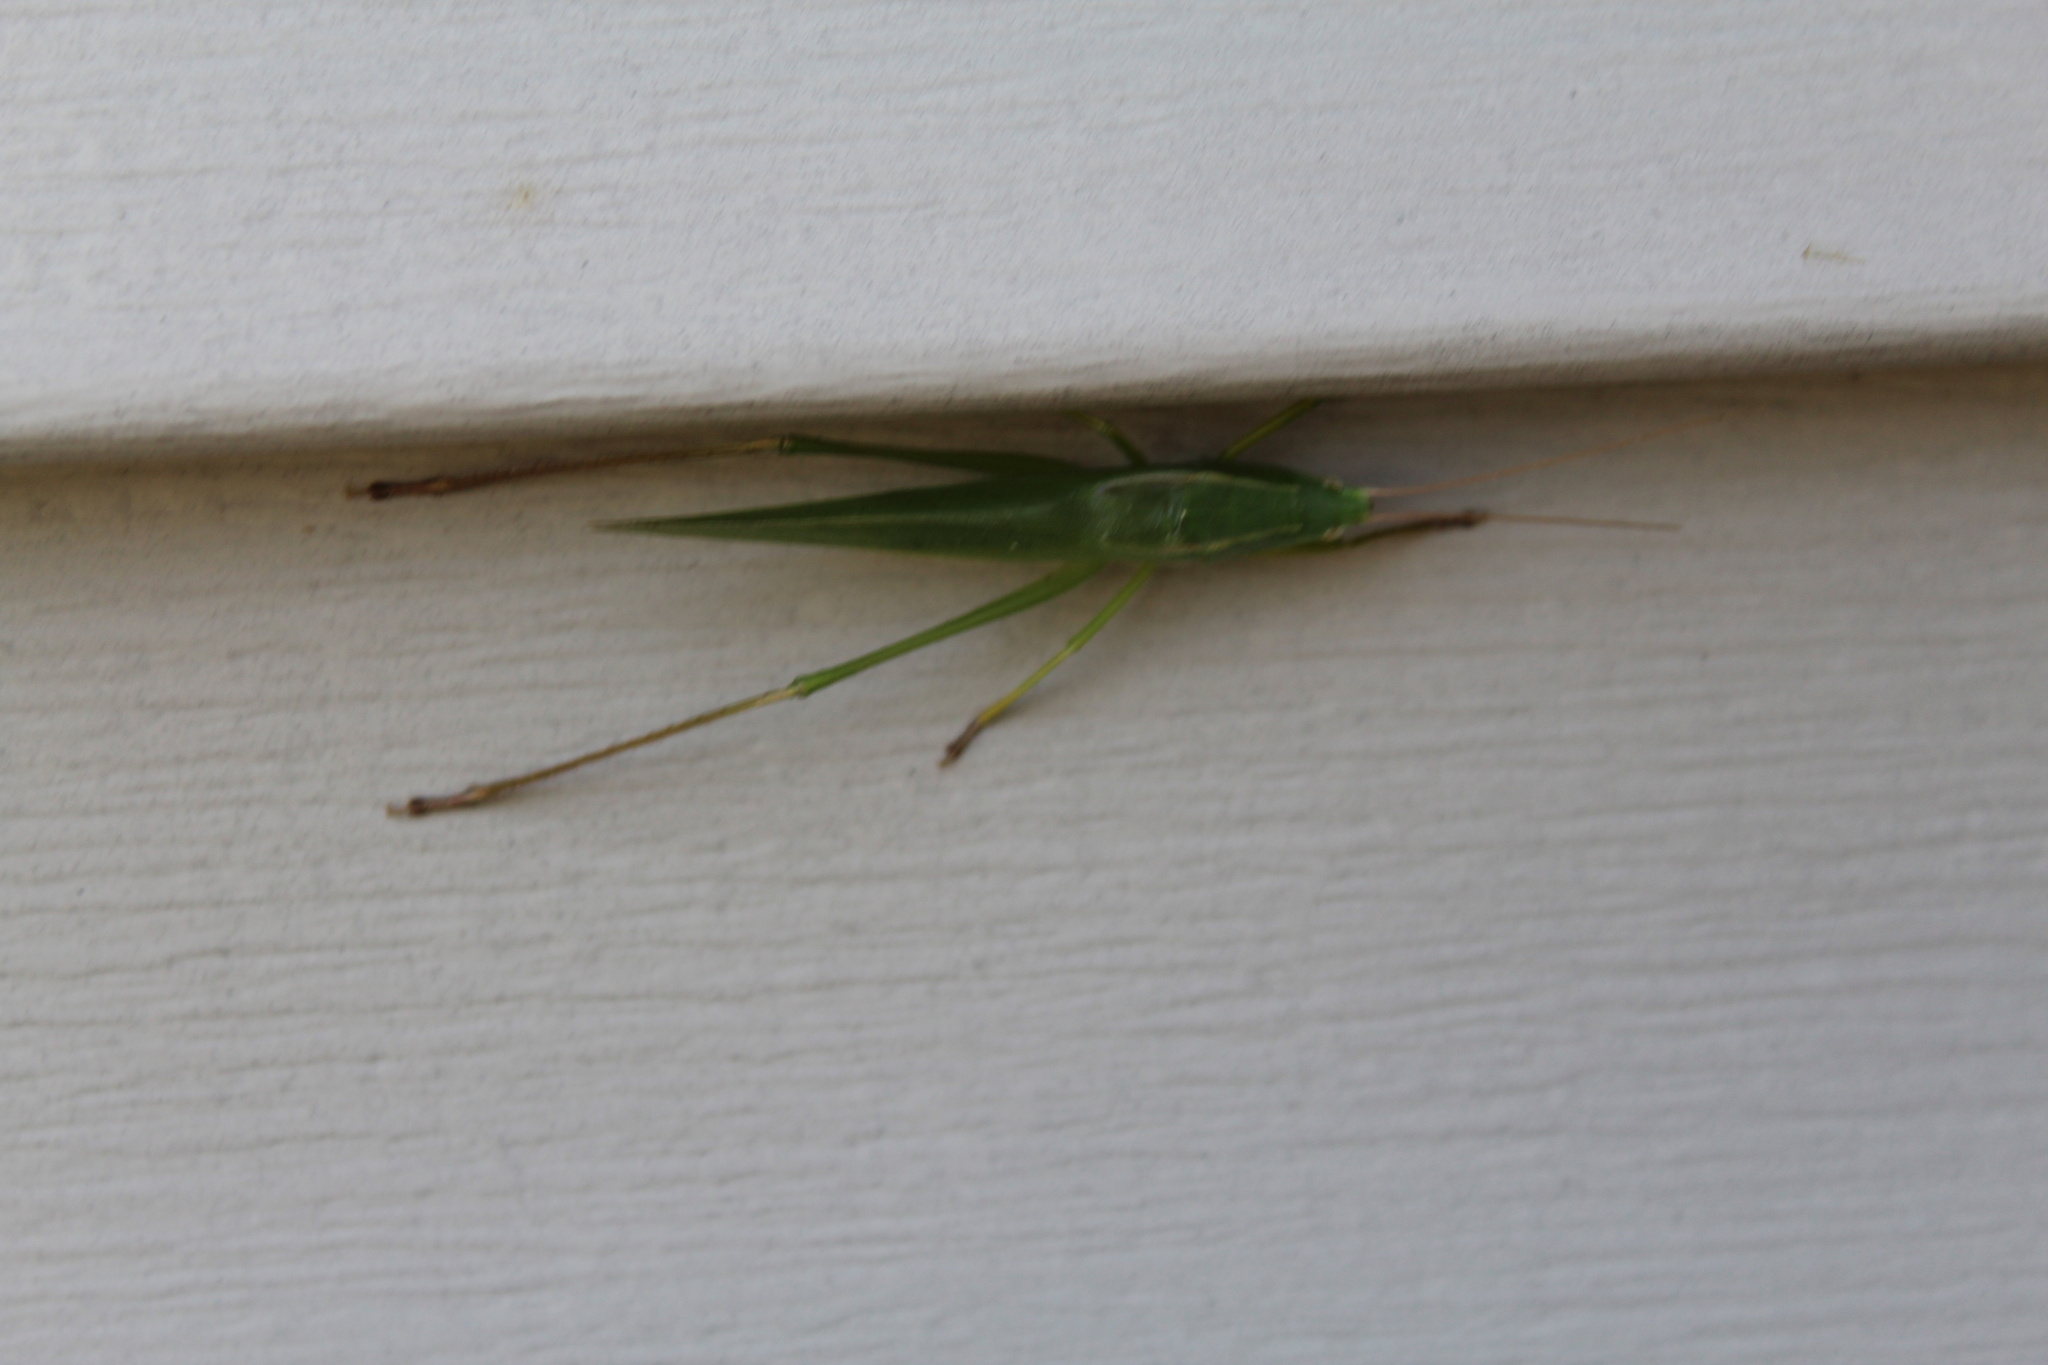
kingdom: Animalia
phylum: Arthropoda
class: Insecta
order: Orthoptera
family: Tettigoniidae
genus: Neoconocephalus
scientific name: Neoconocephalus retusus
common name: Round-tipped conehead
